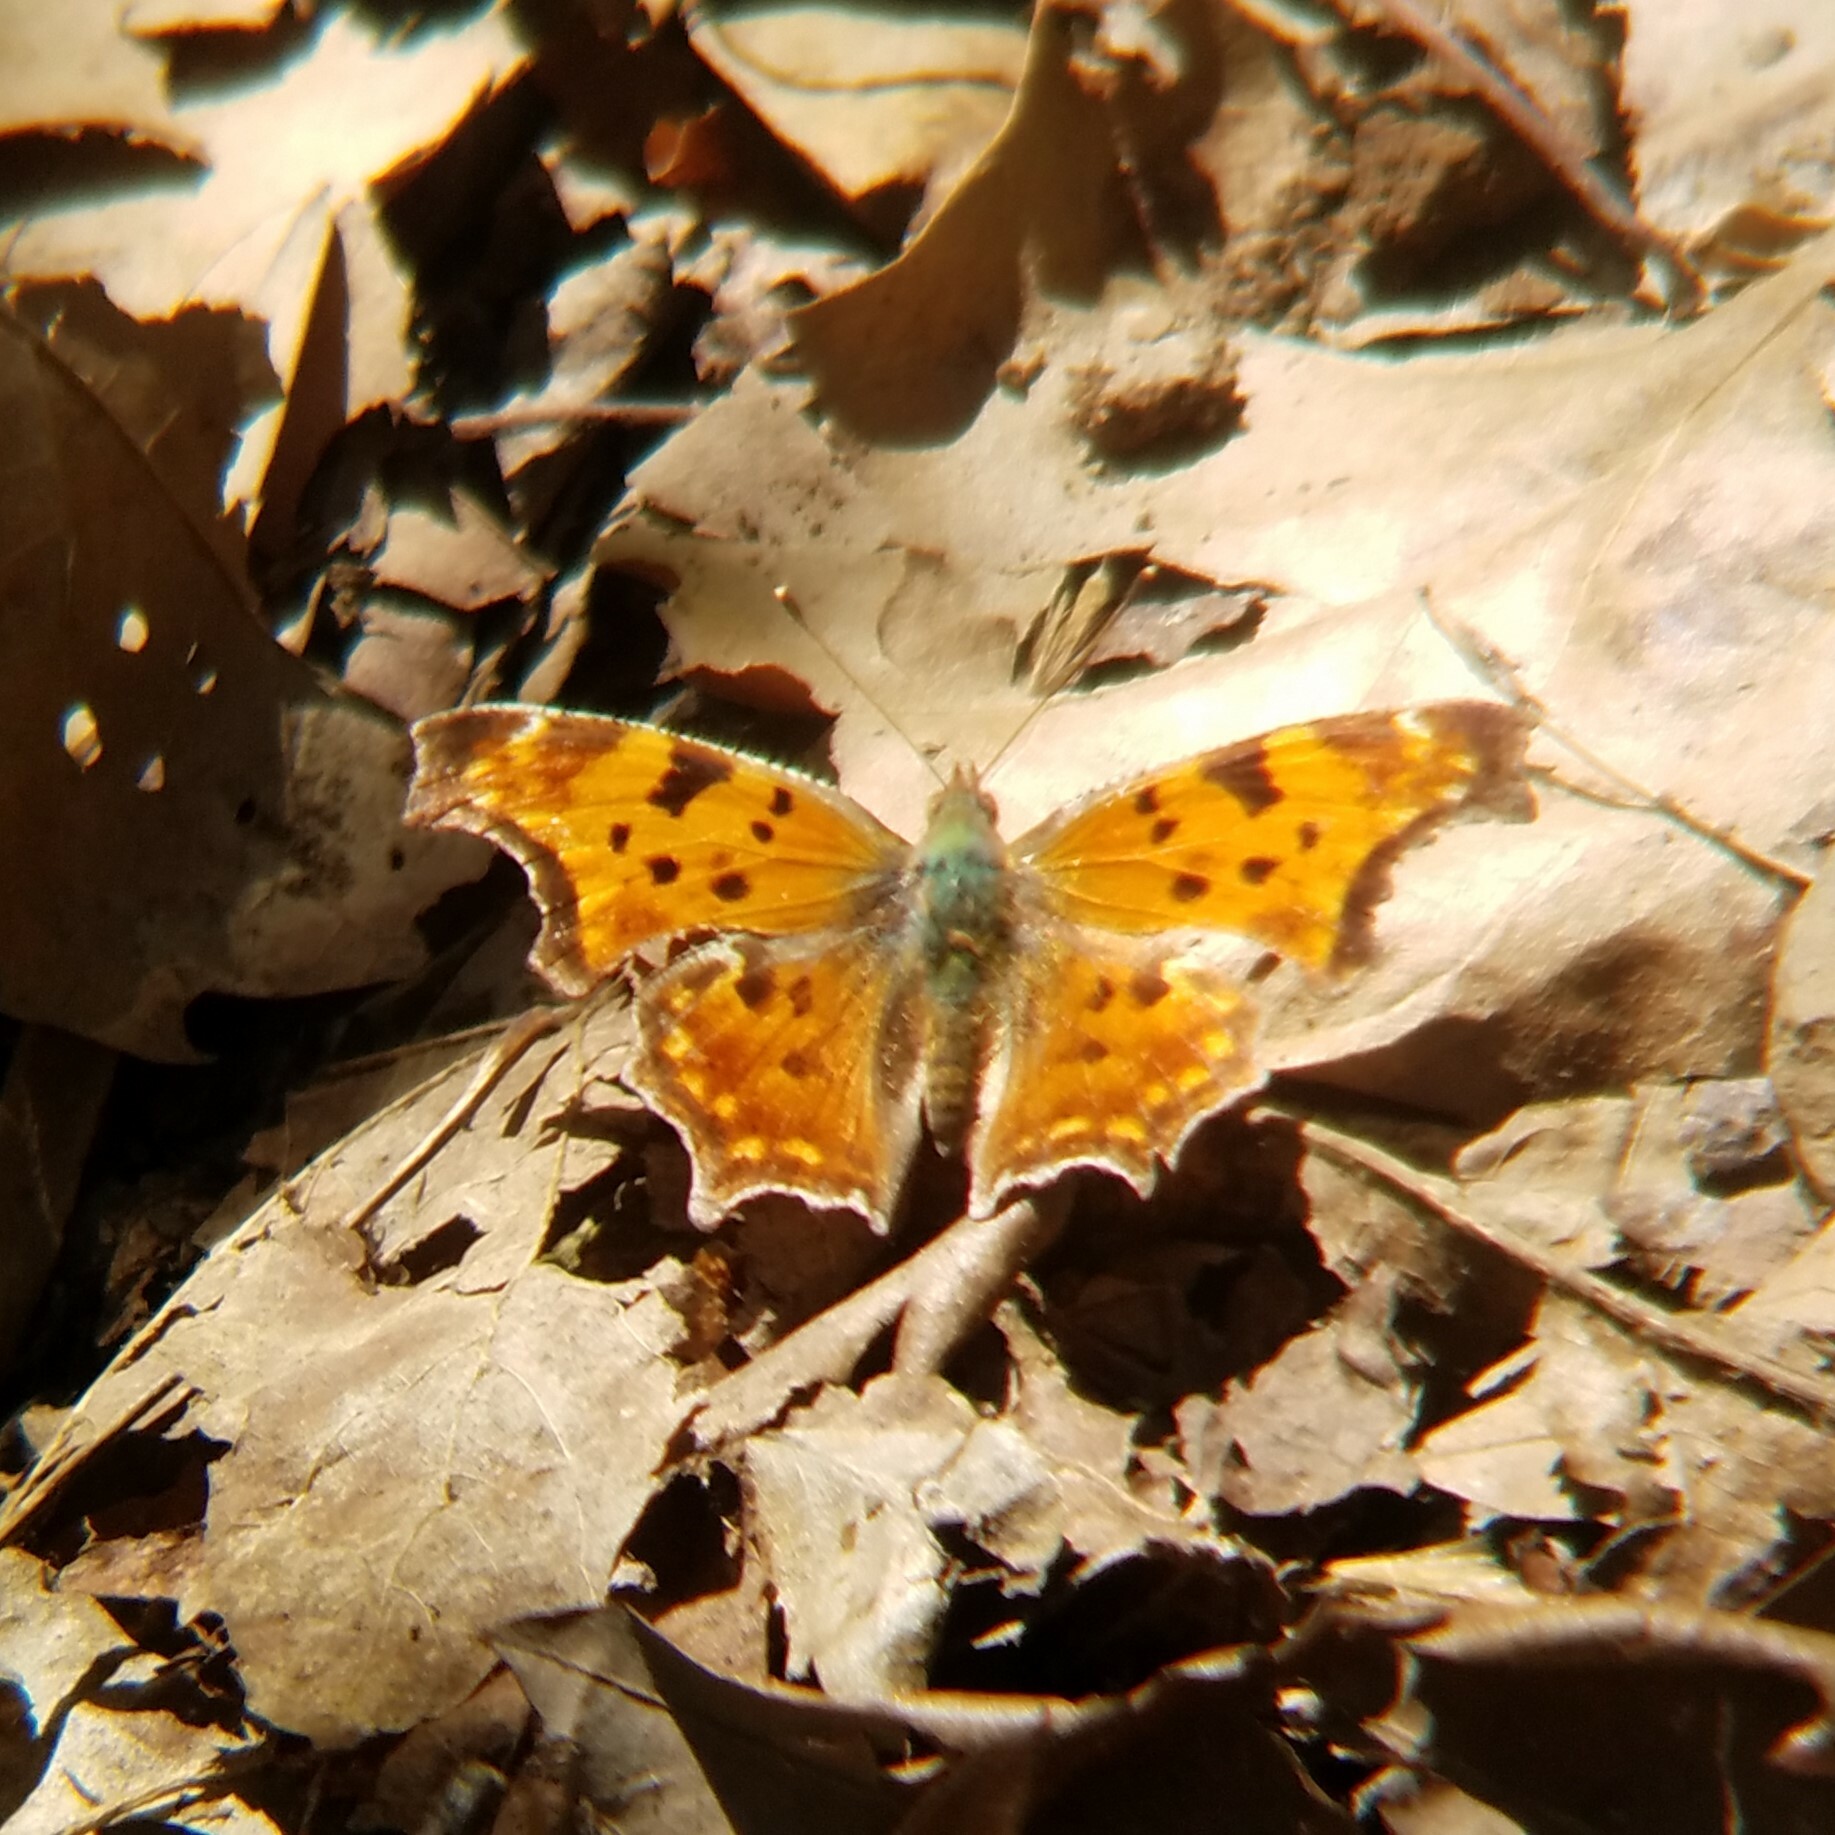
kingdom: Animalia
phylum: Arthropoda
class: Insecta
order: Lepidoptera
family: Nymphalidae
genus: Polygonia
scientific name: Polygonia comma
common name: Eastern comma
